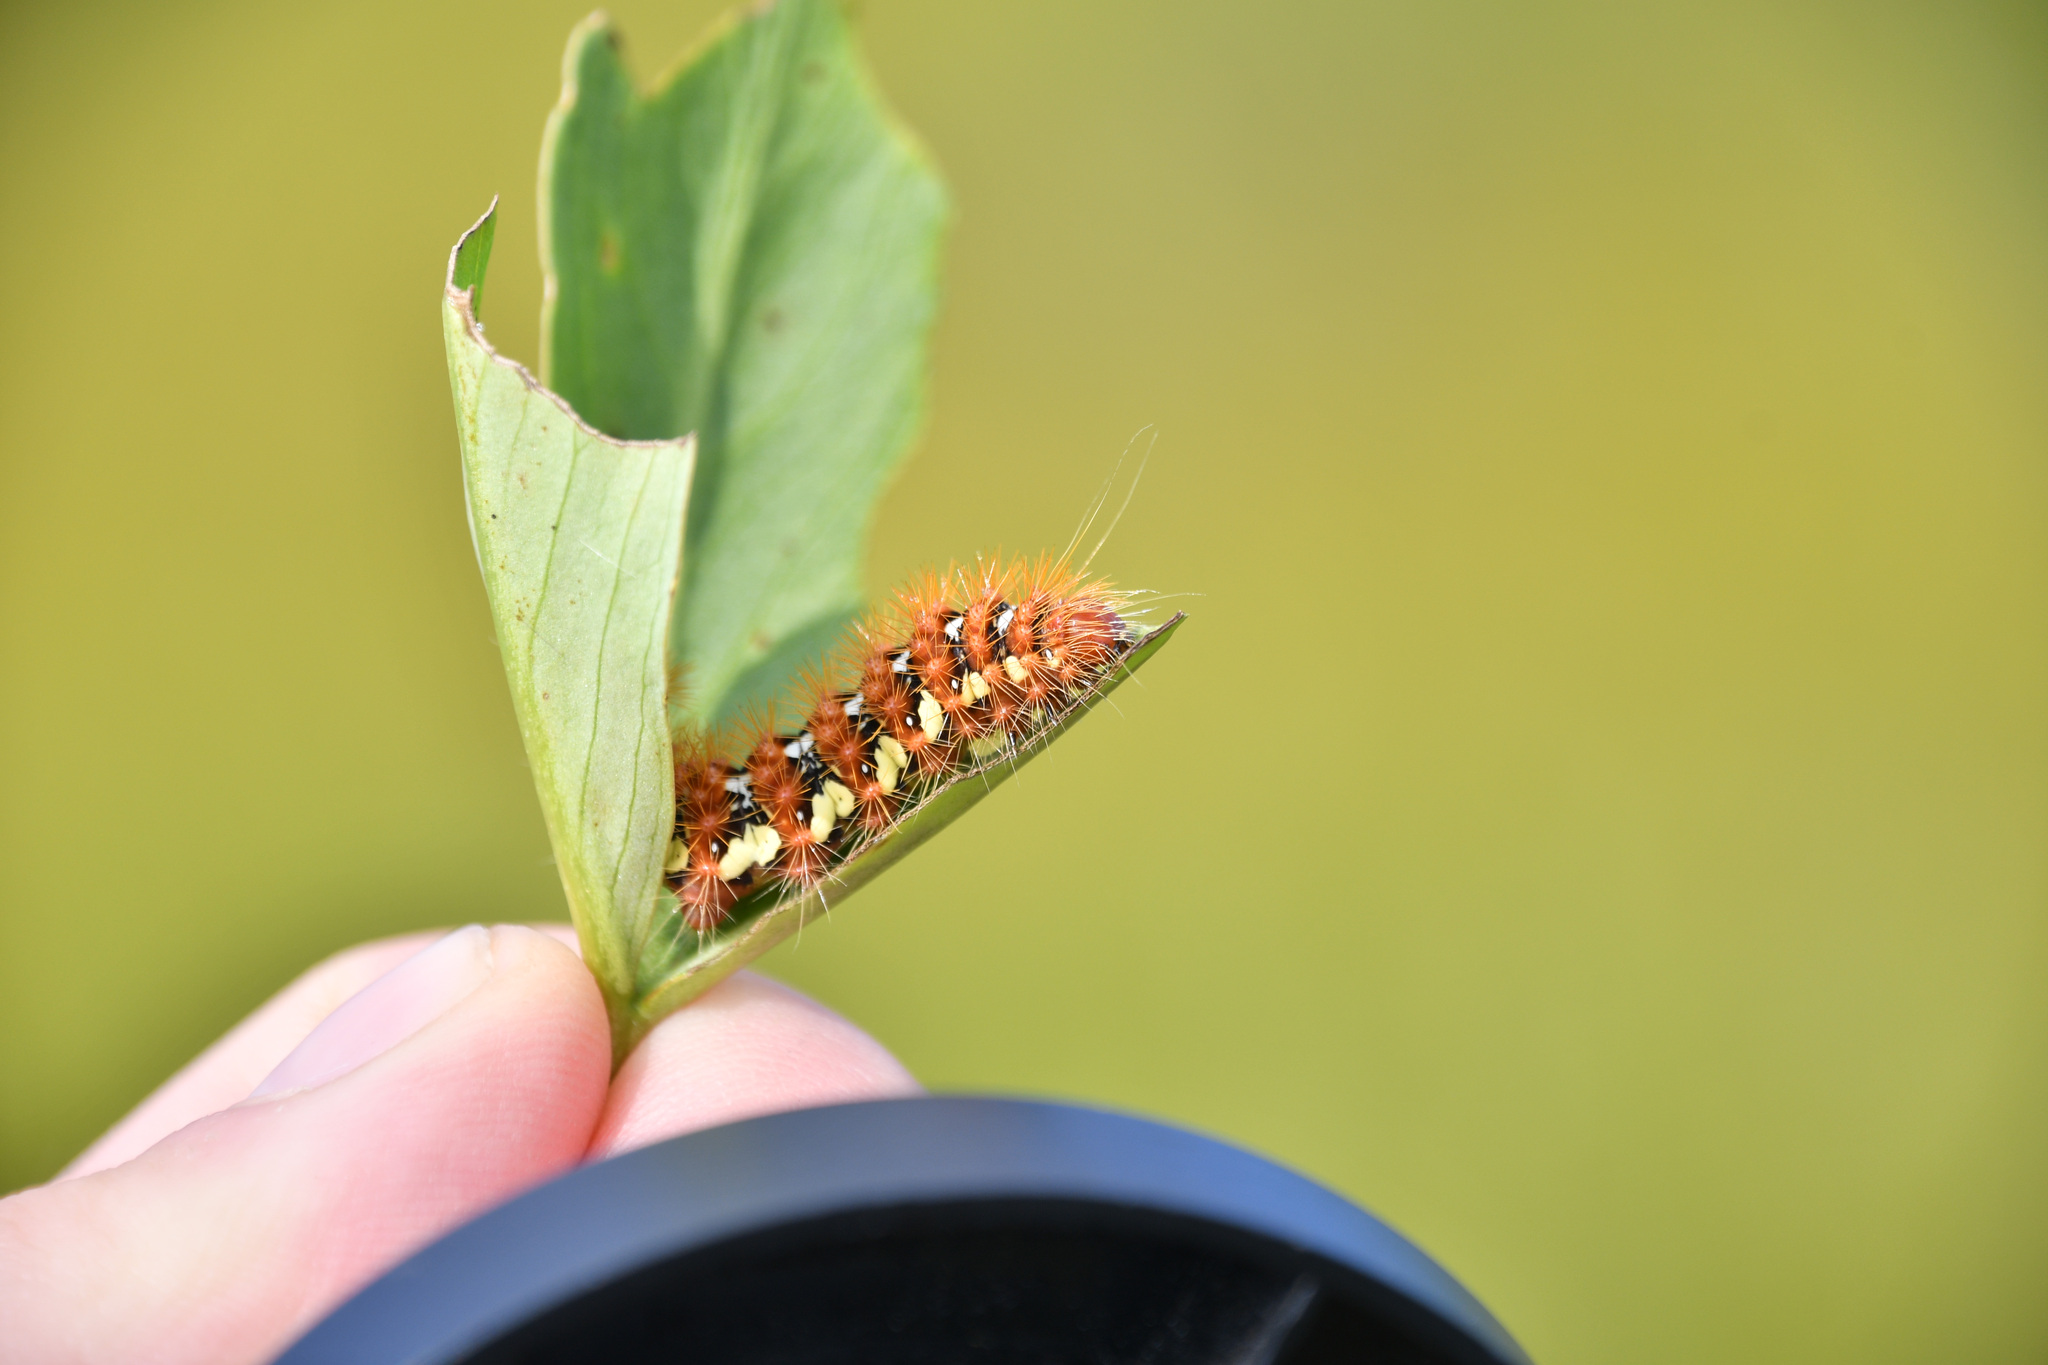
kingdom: Animalia
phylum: Arthropoda
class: Insecta
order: Lepidoptera
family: Noctuidae
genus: Acronicta
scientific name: Acronicta oblinita
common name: Smeared dagger
